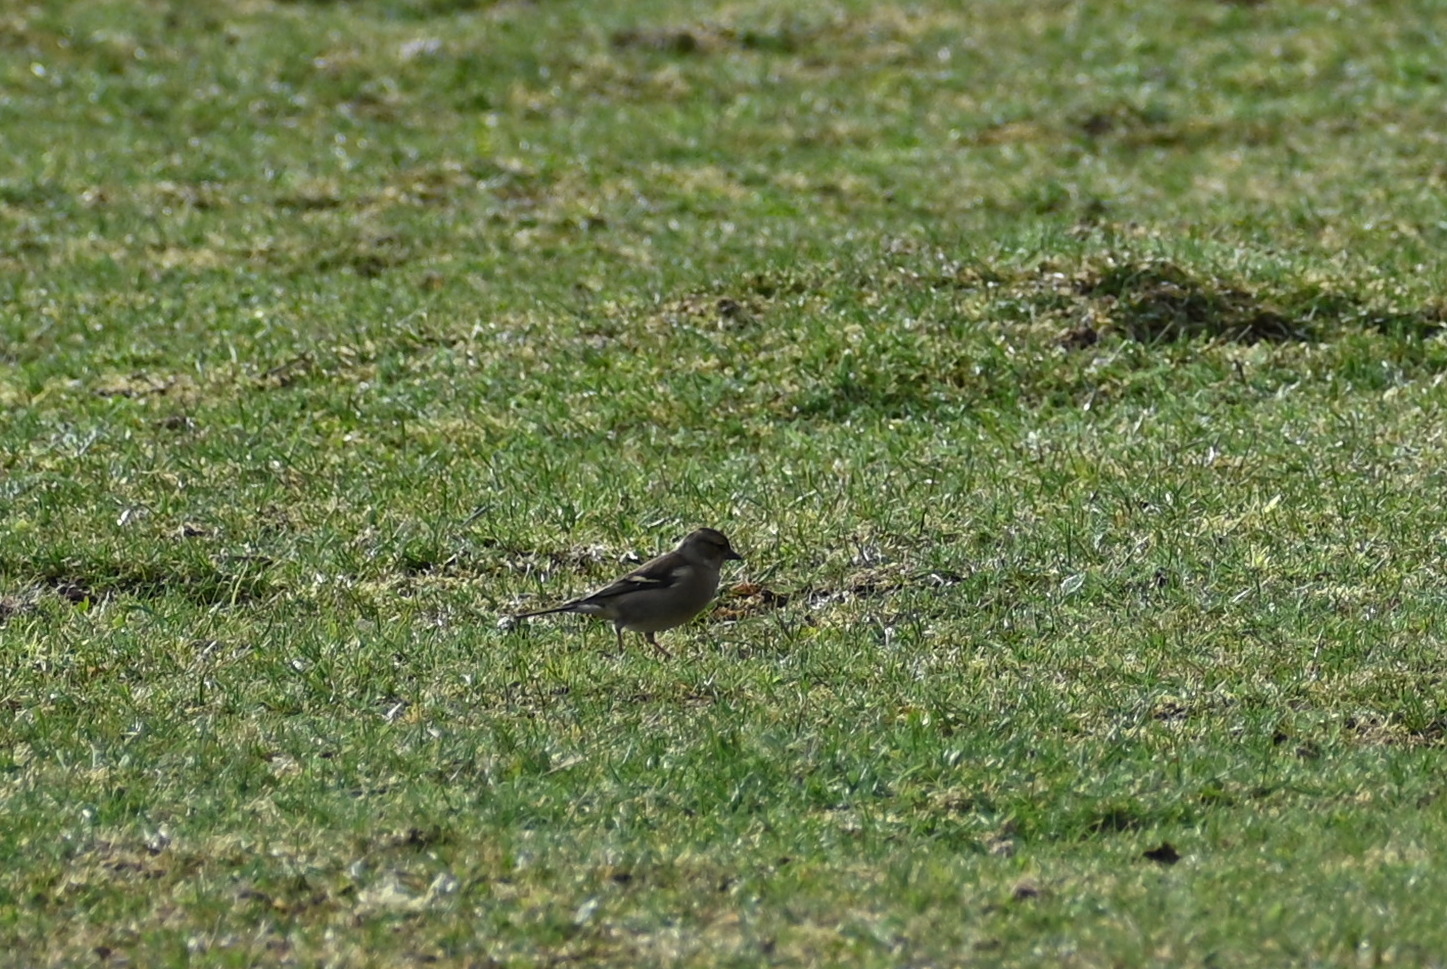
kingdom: Animalia
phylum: Chordata
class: Aves
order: Passeriformes
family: Fringillidae
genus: Fringilla
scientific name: Fringilla coelebs
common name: Common chaffinch
